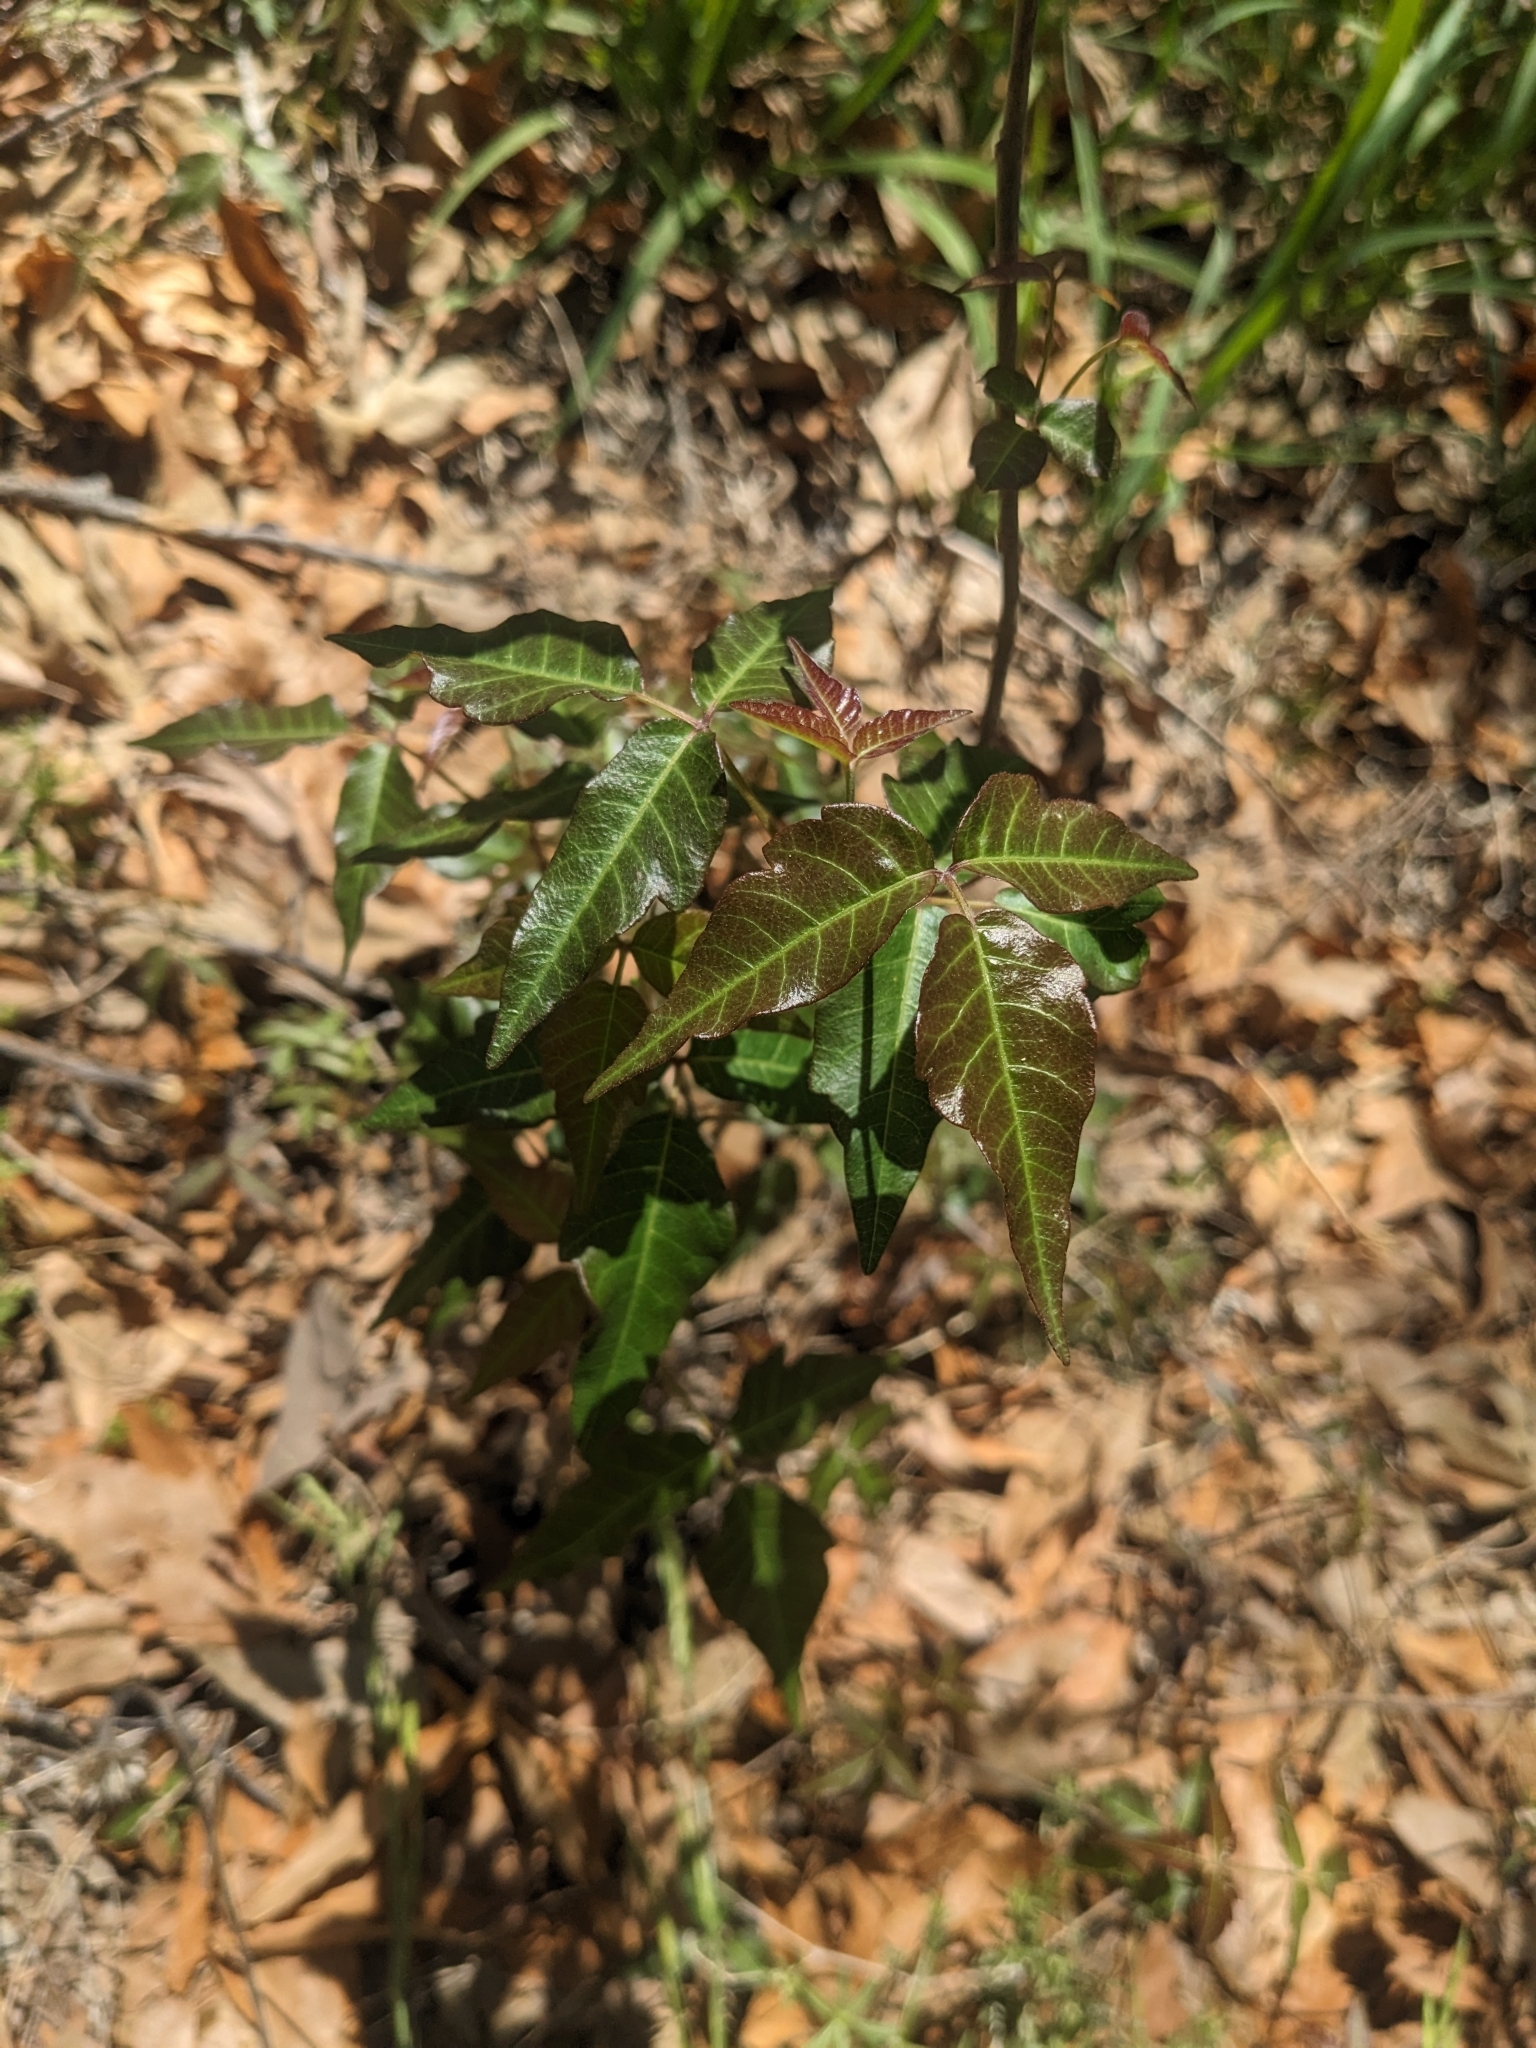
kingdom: Plantae
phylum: Tracheophyta
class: Magnoliopsida
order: Sapindales
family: Anacardiaceae
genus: Toxicodendron
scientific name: Toxicodendron radicans
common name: Poison ivy
